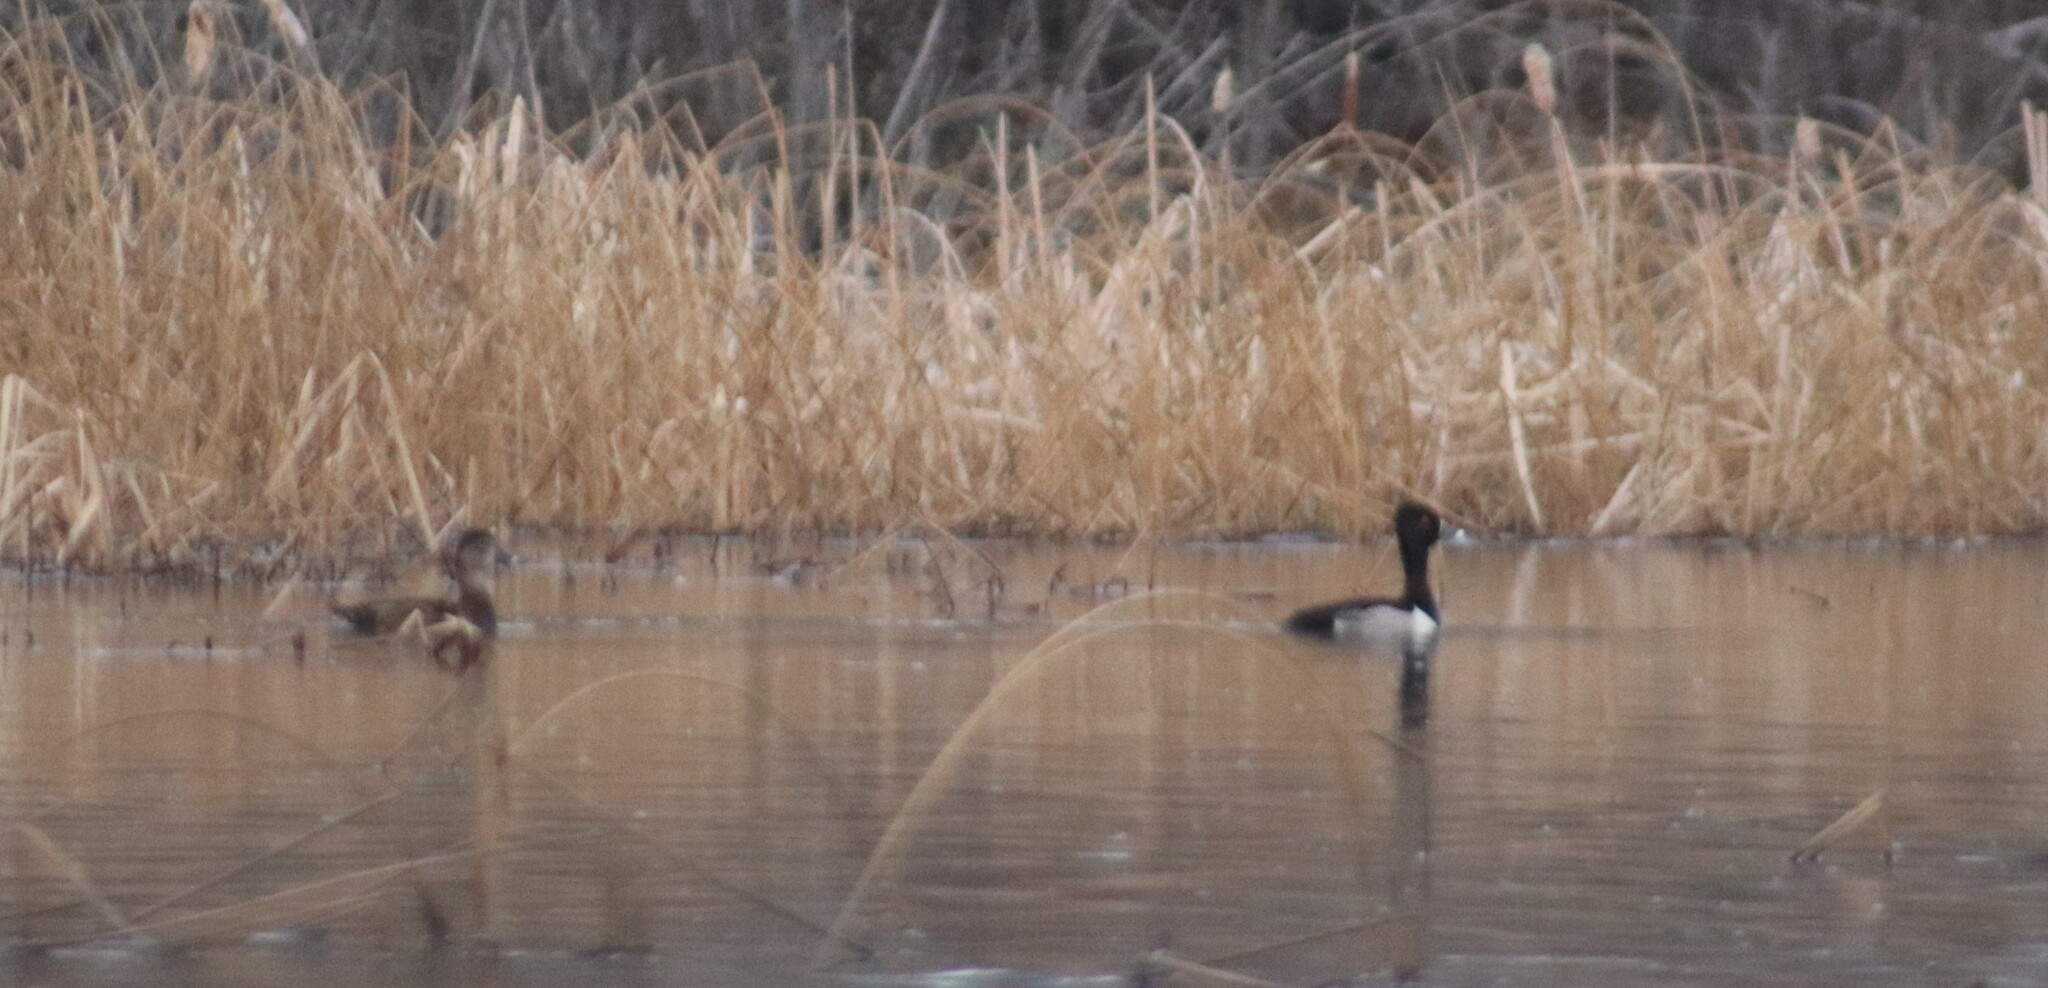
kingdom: Animalia
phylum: Chordata
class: Aves
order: Anseriformes
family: Anatidae
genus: Aythya
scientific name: Aythya collaris
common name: Ring-necked duck
